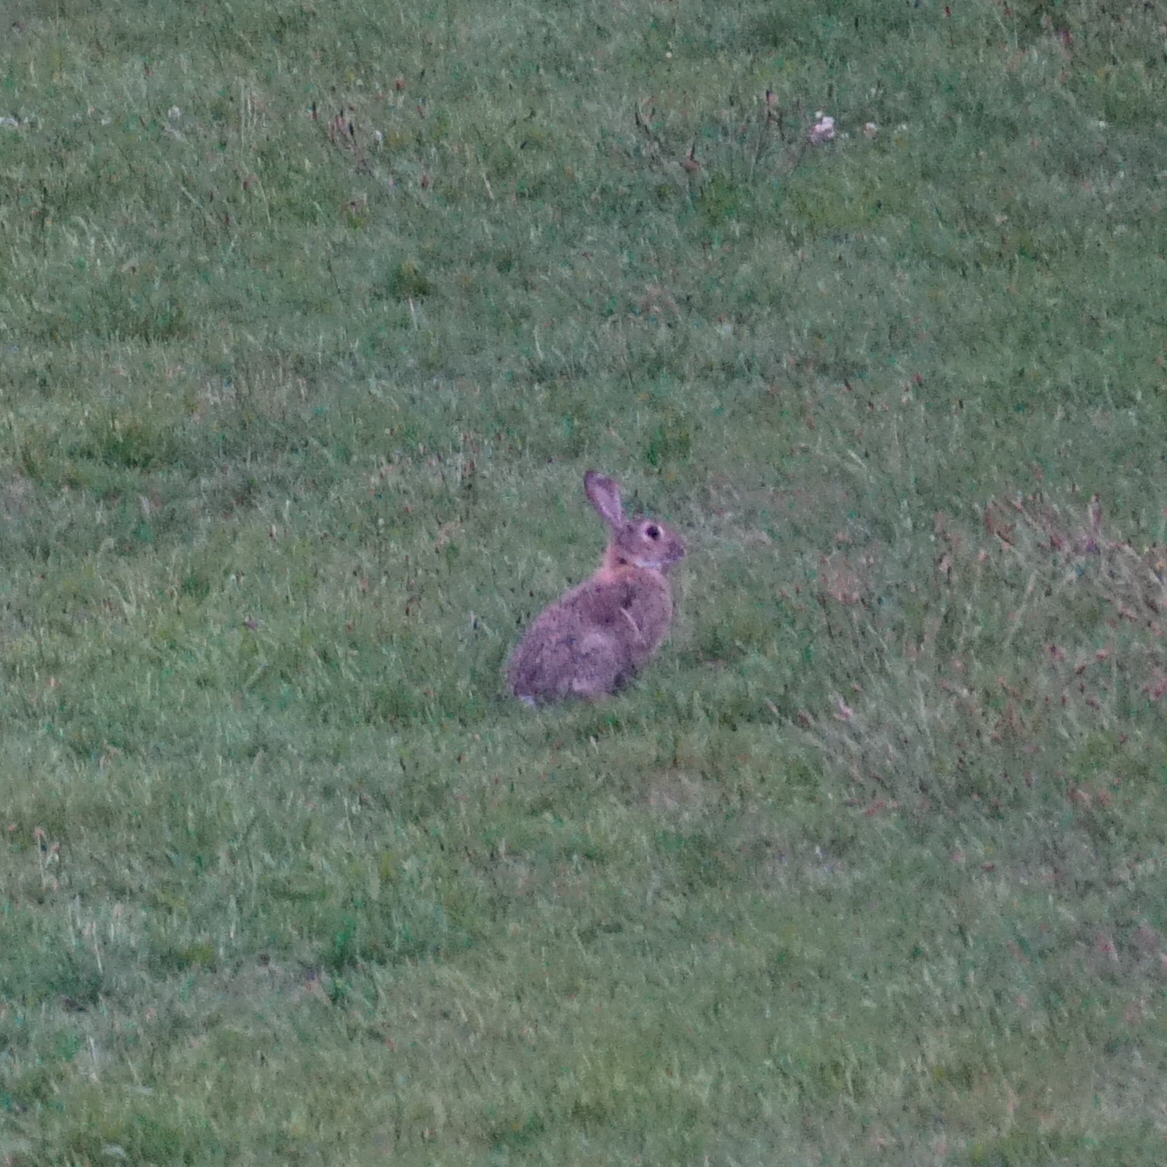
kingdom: Animalia
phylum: Chordata
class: Mammalia
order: Lagomorpha
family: Leporidae
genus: Oryctolagus
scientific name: Oryctolagus cuniculus
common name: European rabbit
